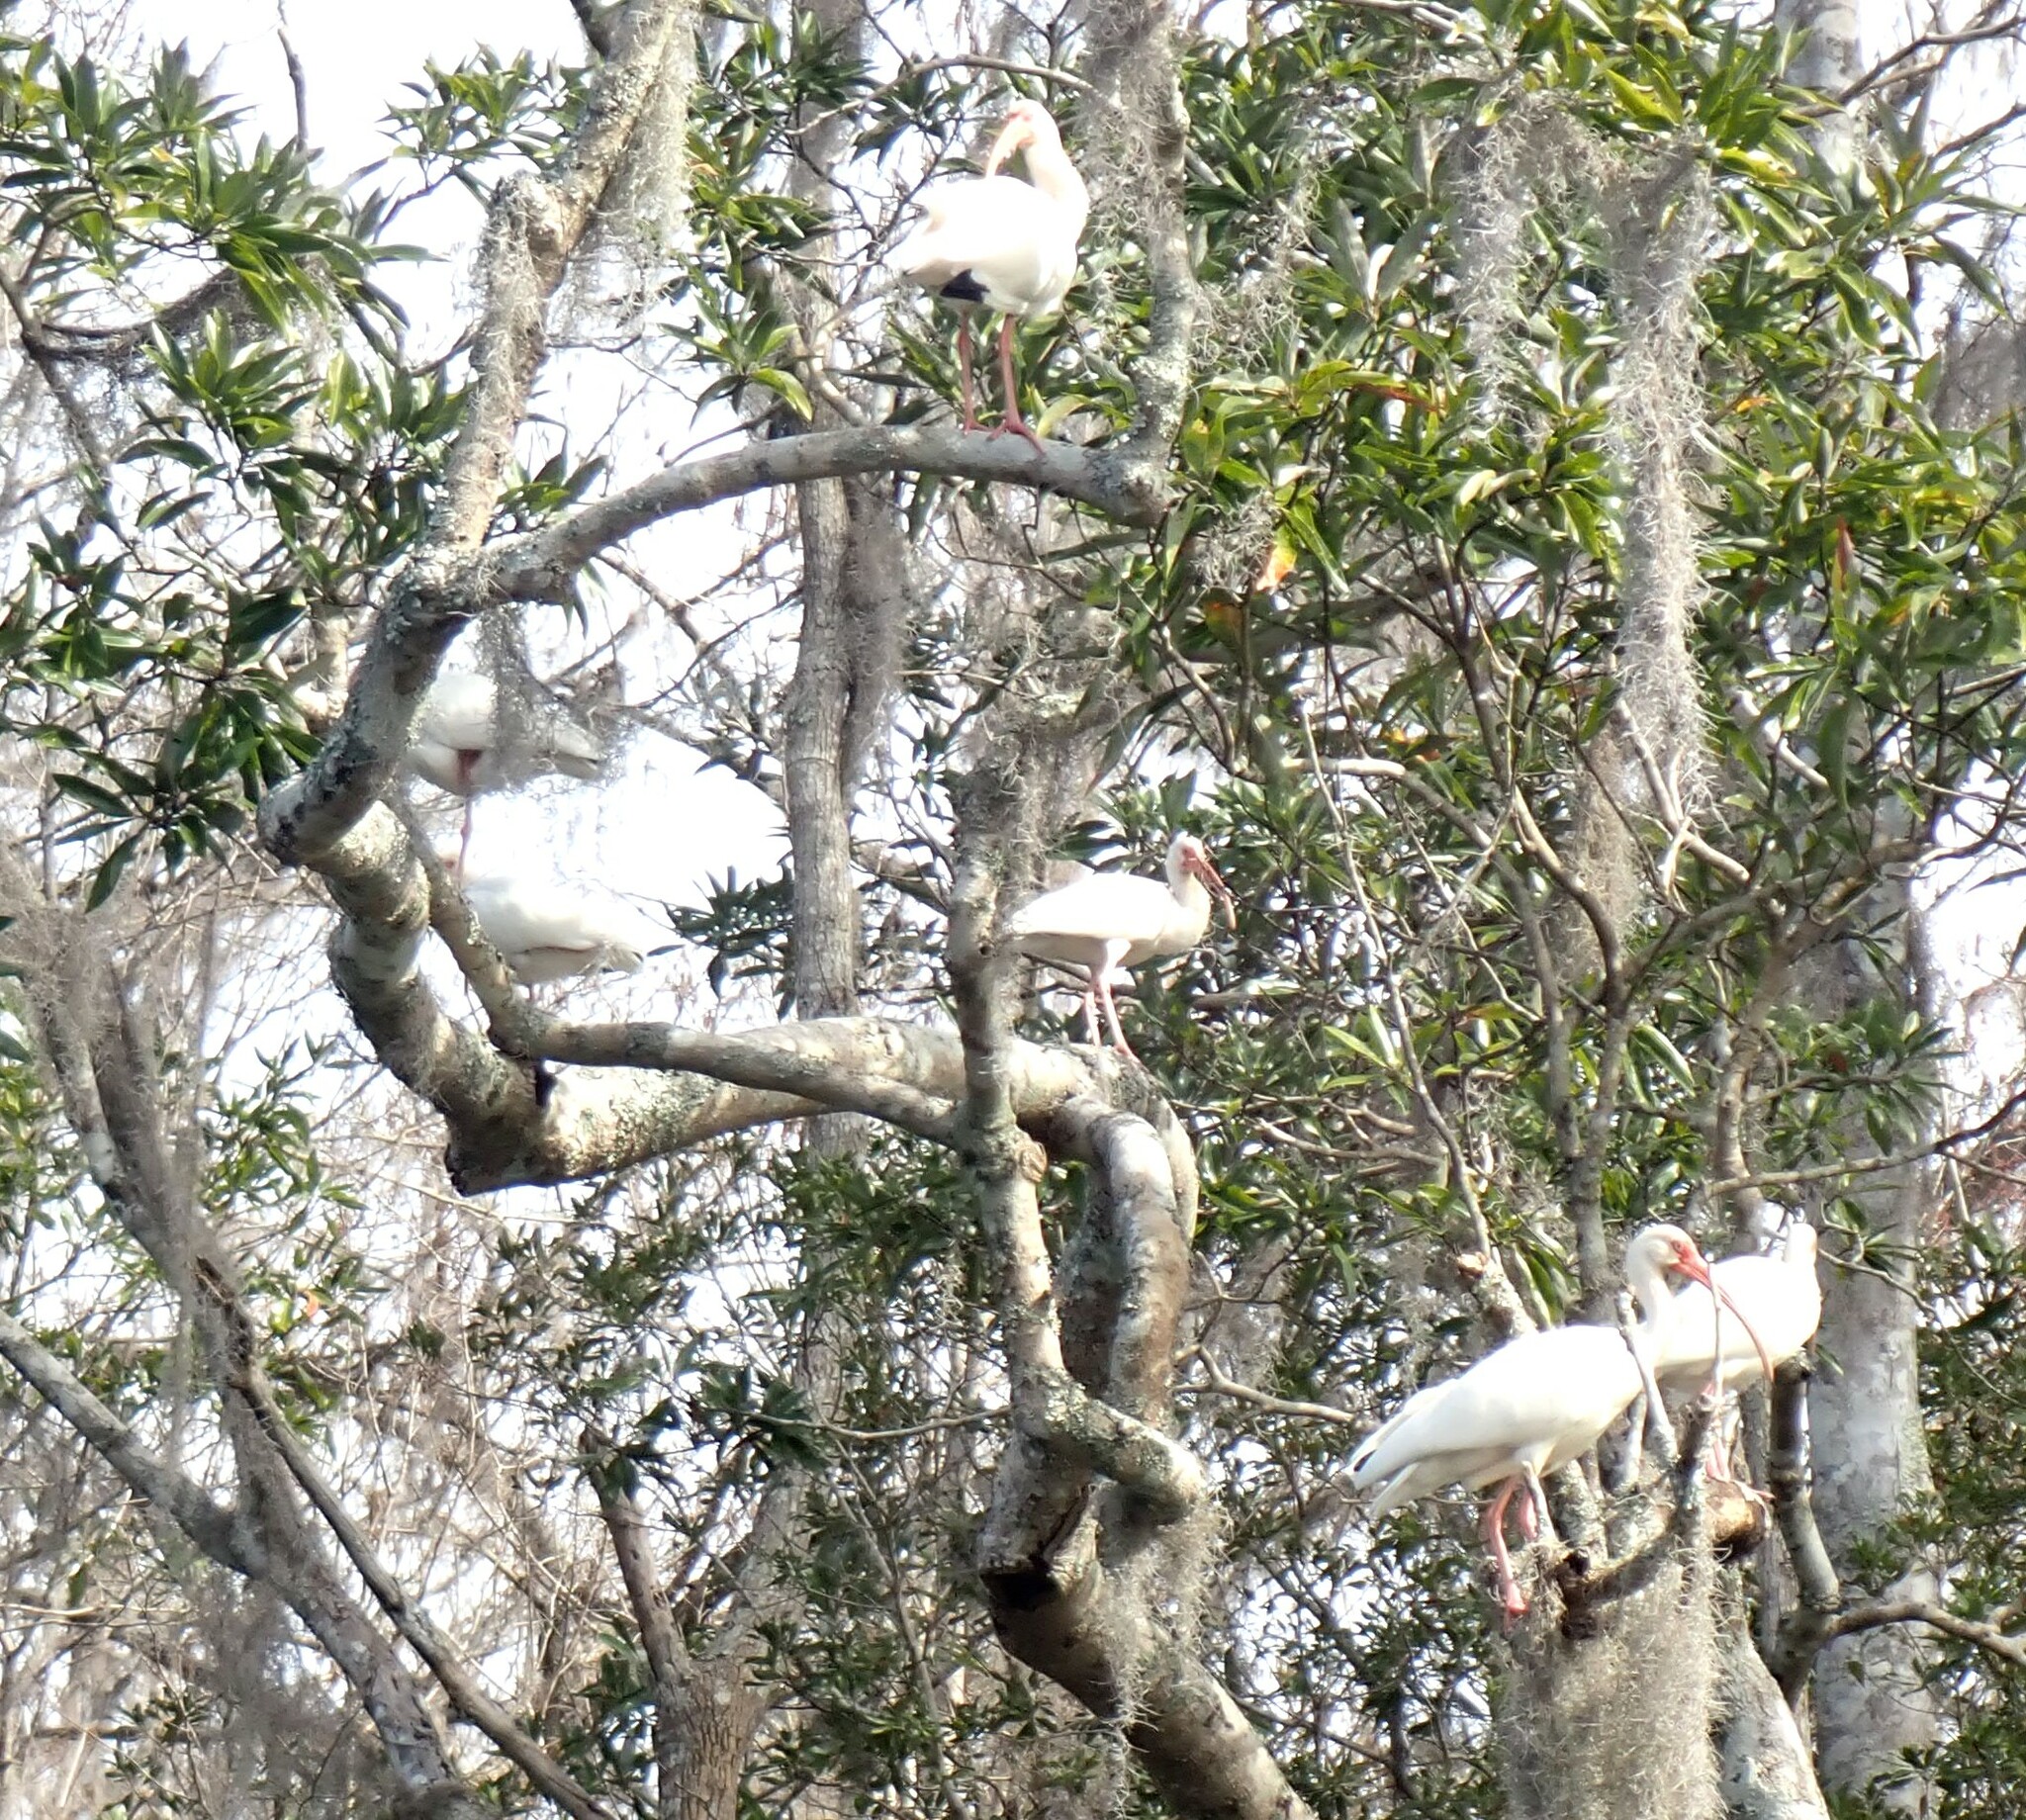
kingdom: Animalia
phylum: Chordata
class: Aves
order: Pelecaniformes
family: Threskiornithidae
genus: Eudocimus
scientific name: Eudocimus albus
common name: White ibis
